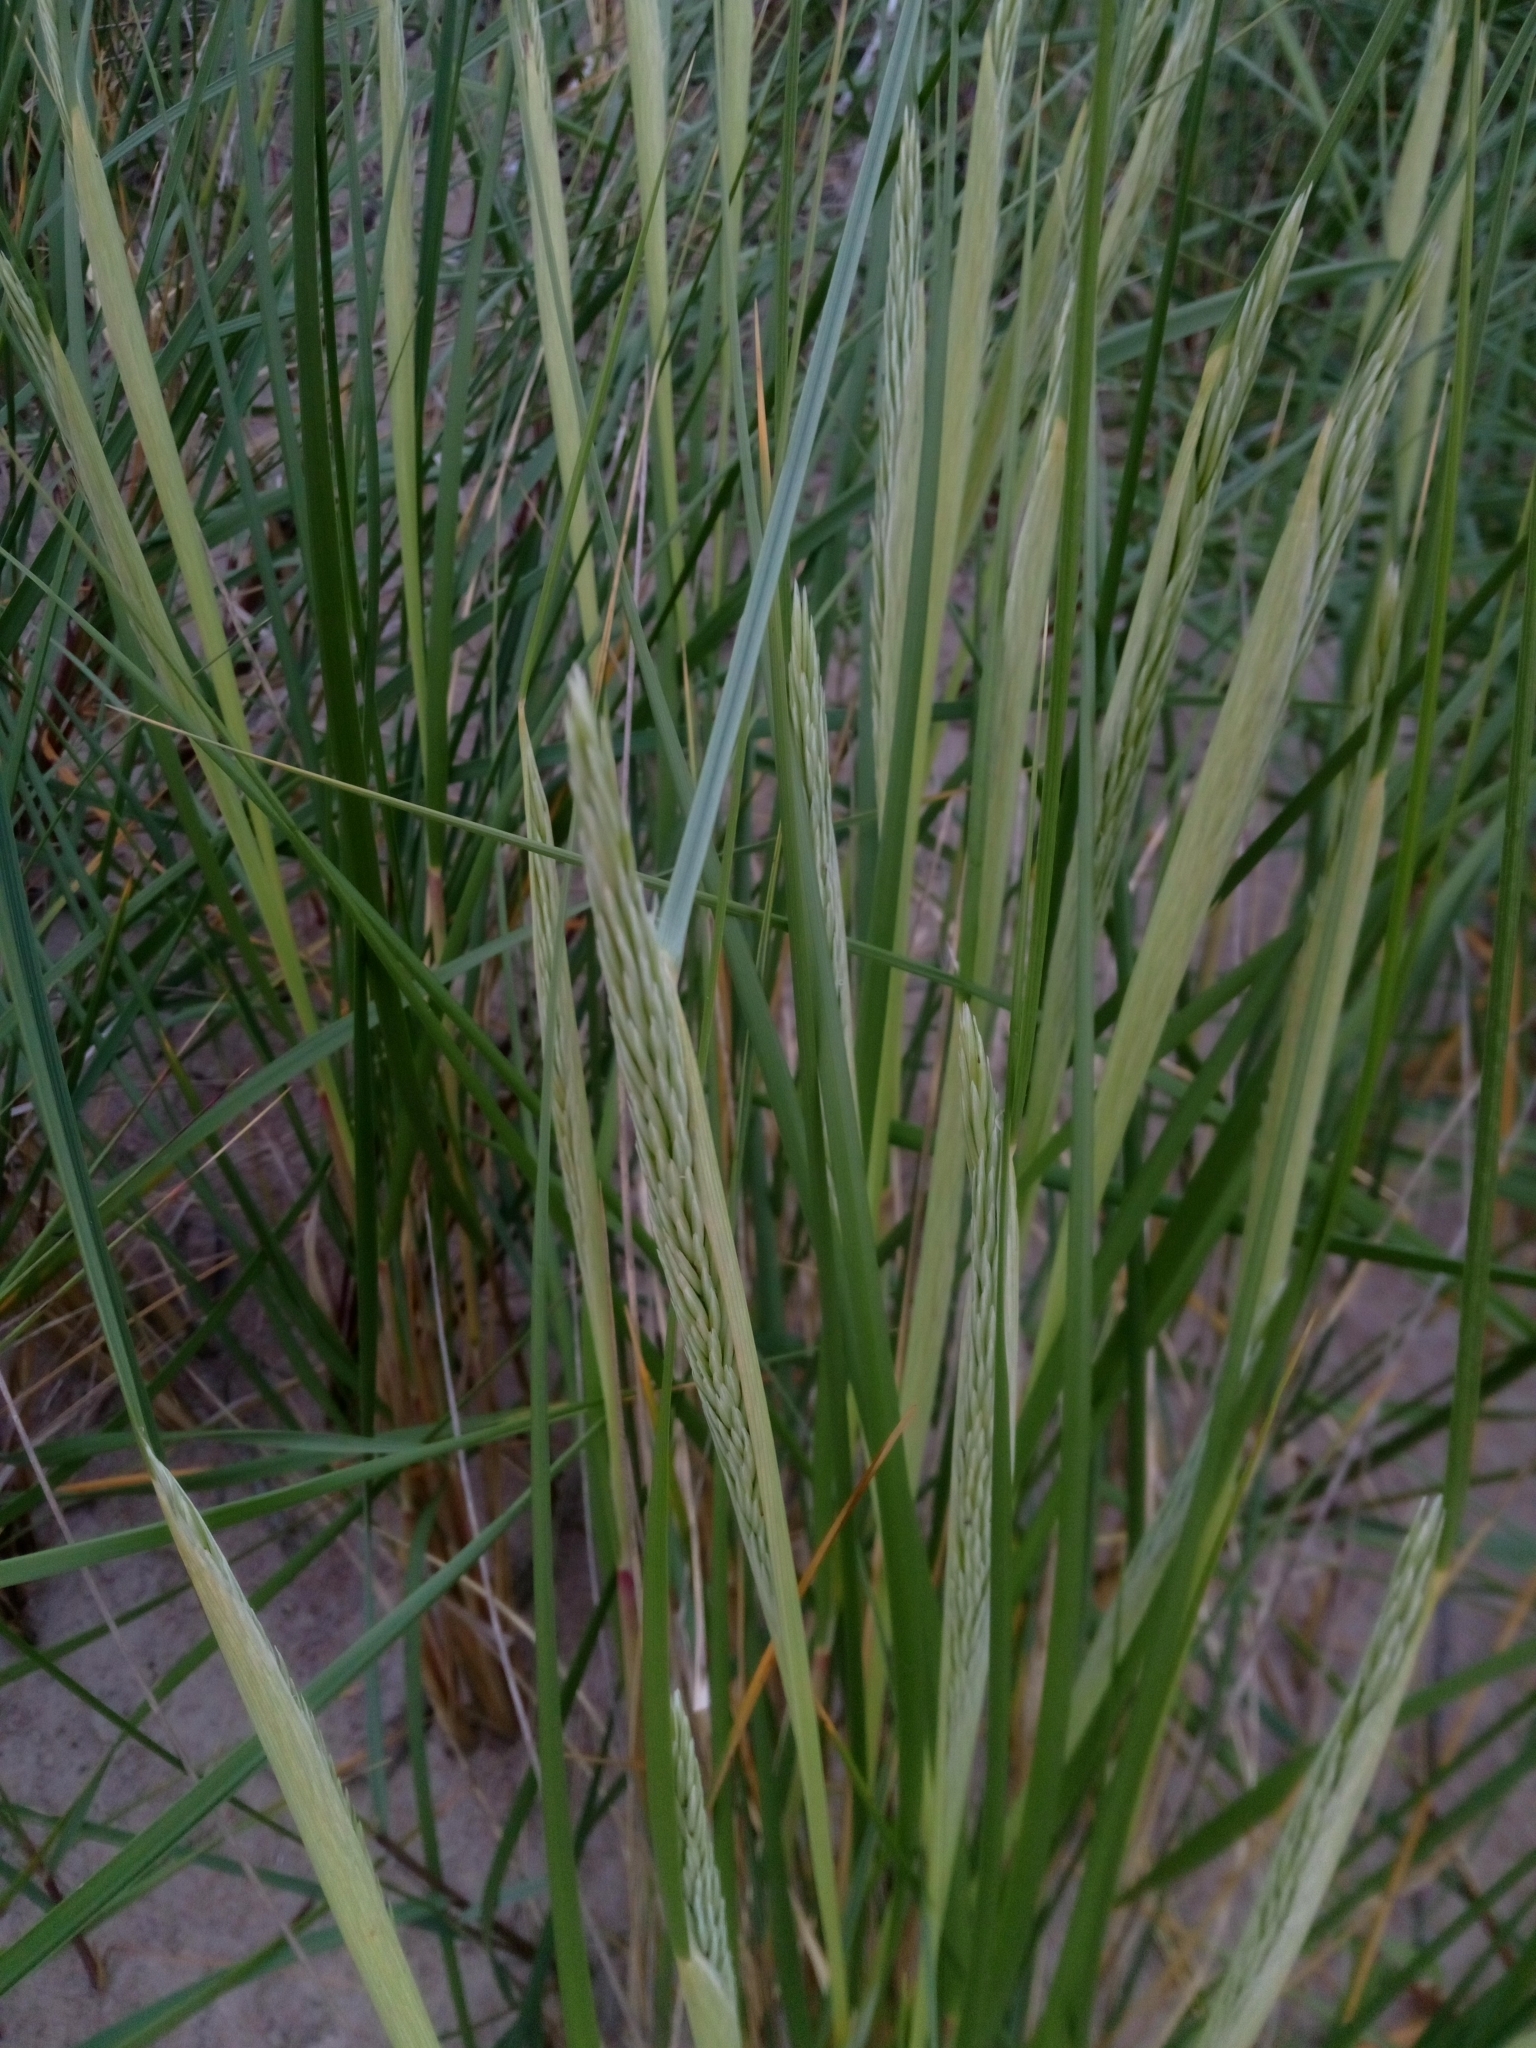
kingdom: Plantae
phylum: Tracheophyta
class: Liliopsida
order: Poales
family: Poaceae
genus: Calamagrostis
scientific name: Calamagrostis arenaria
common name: European beachgrass
